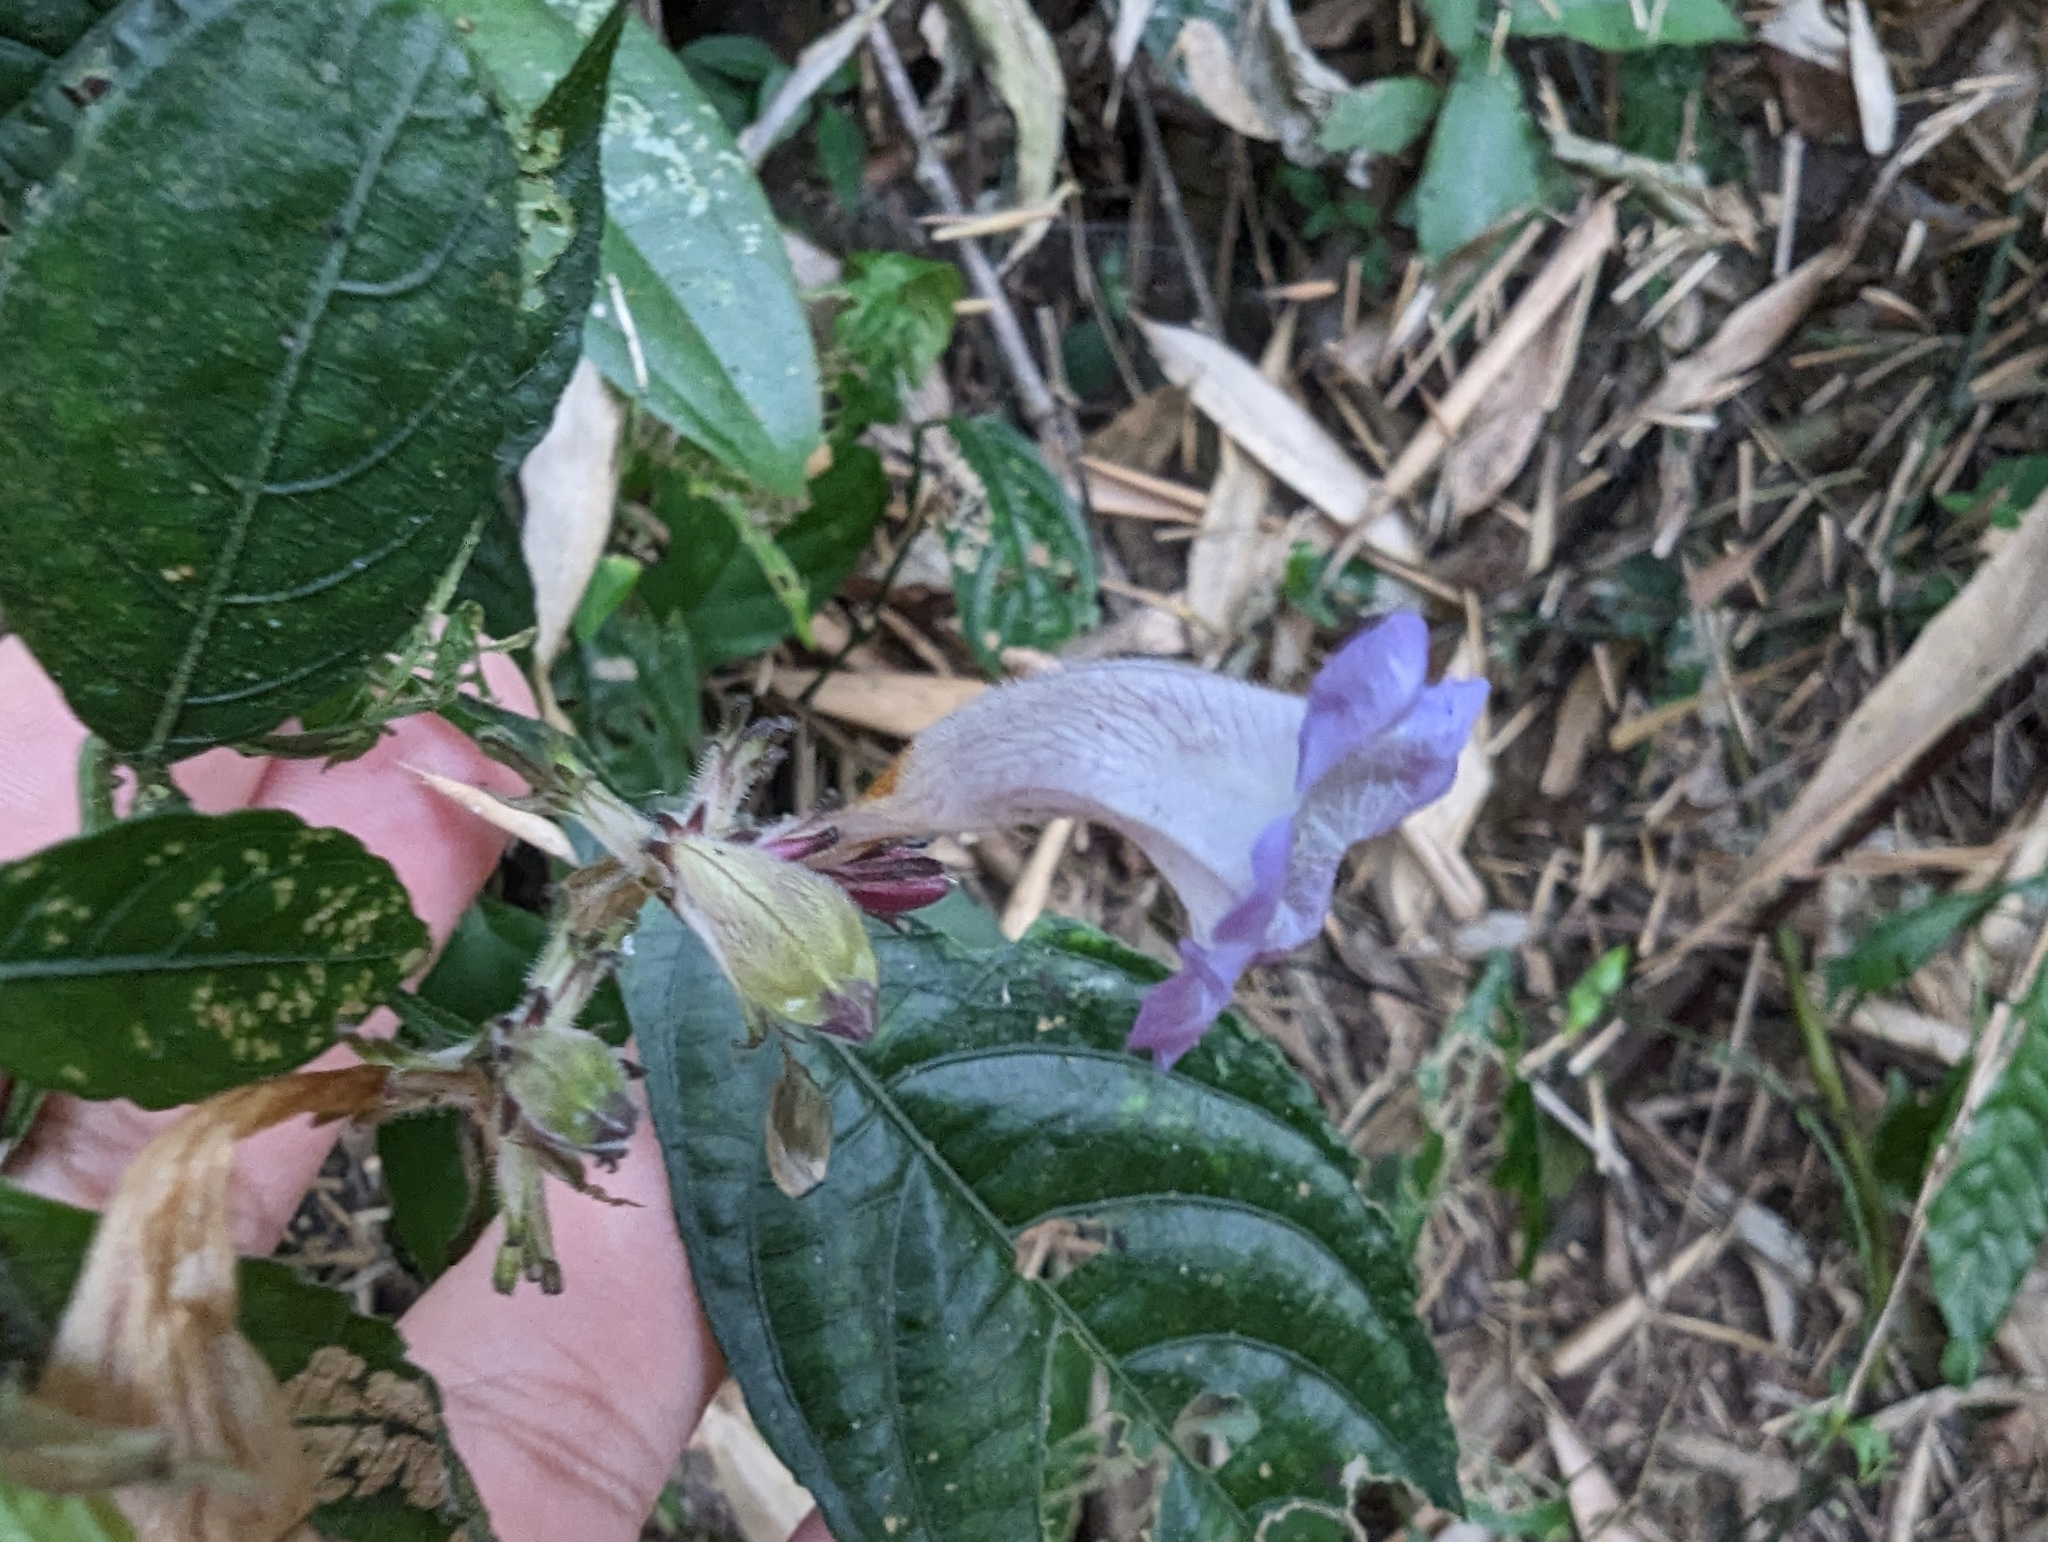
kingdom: Plantae
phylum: Tracheophyta
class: Magnoliopsida
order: Lamiales
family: Acanthaceae
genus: Strobilanthes
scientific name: Strobilanthes pentastemonoides
